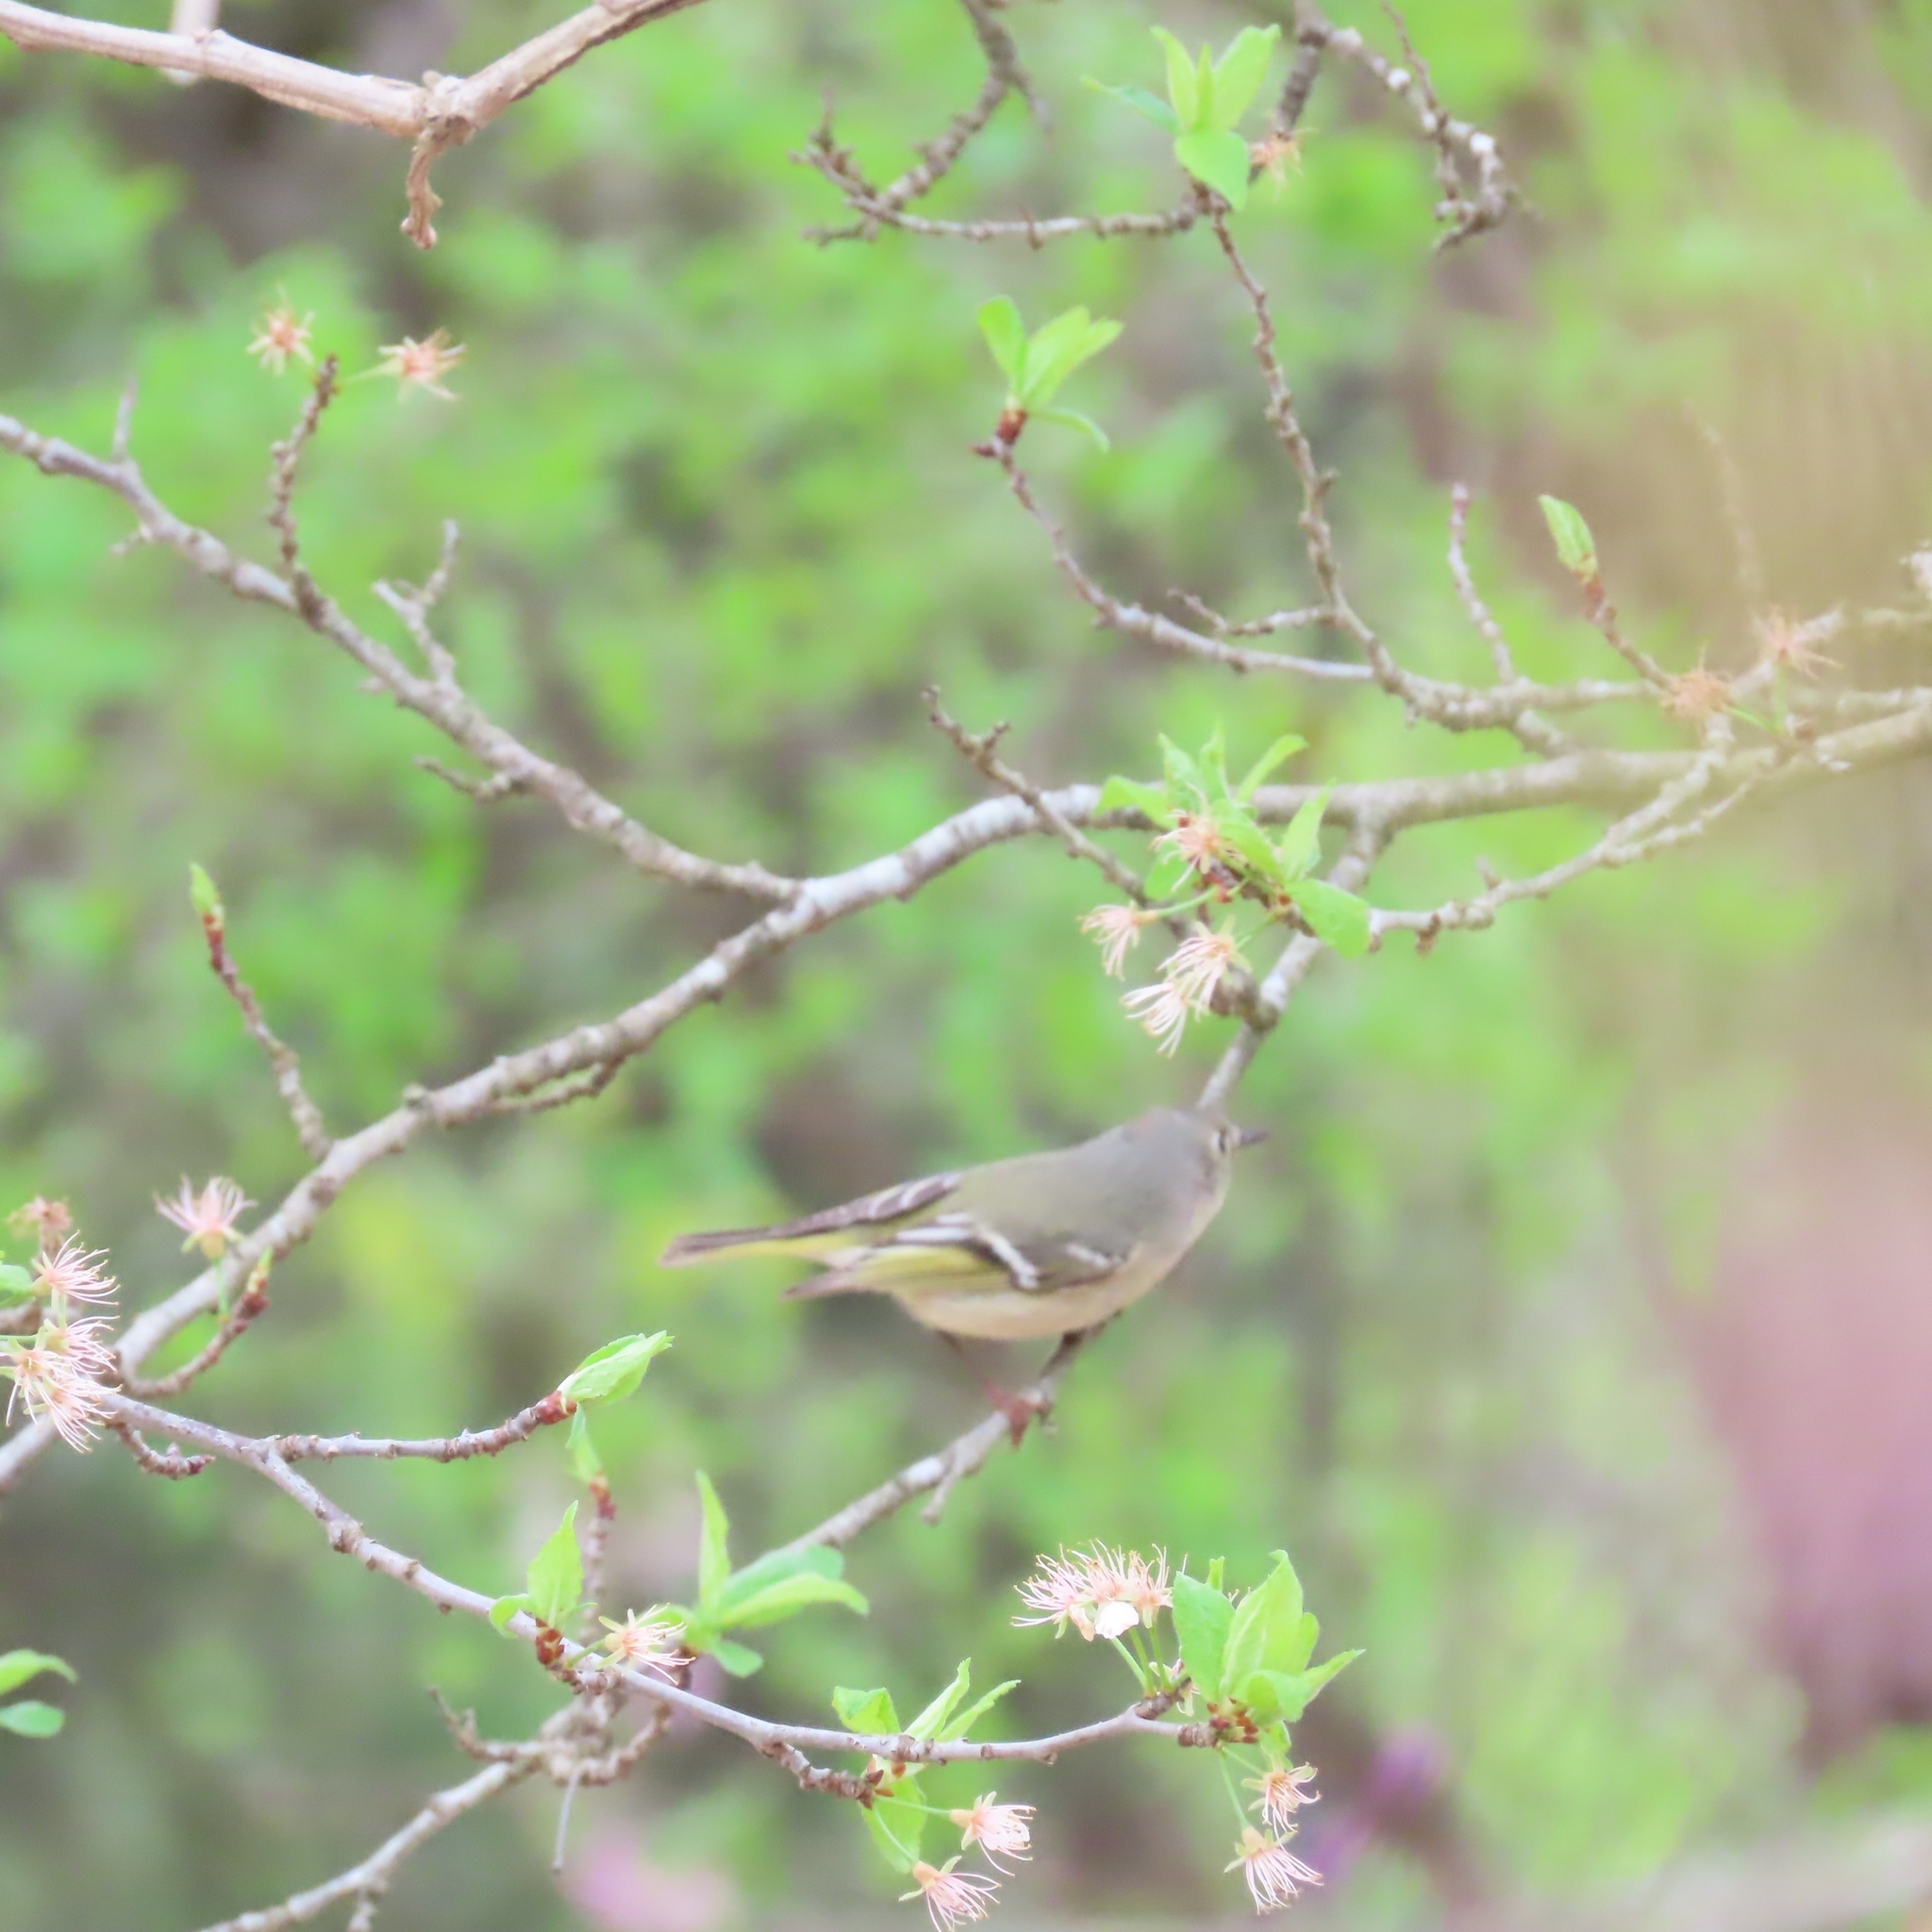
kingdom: Animalia
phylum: Chordata
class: Aves
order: Passeriformes
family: Regulidae
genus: Regulus
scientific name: Regulus calendula
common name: Ruby-crowned kinglet
